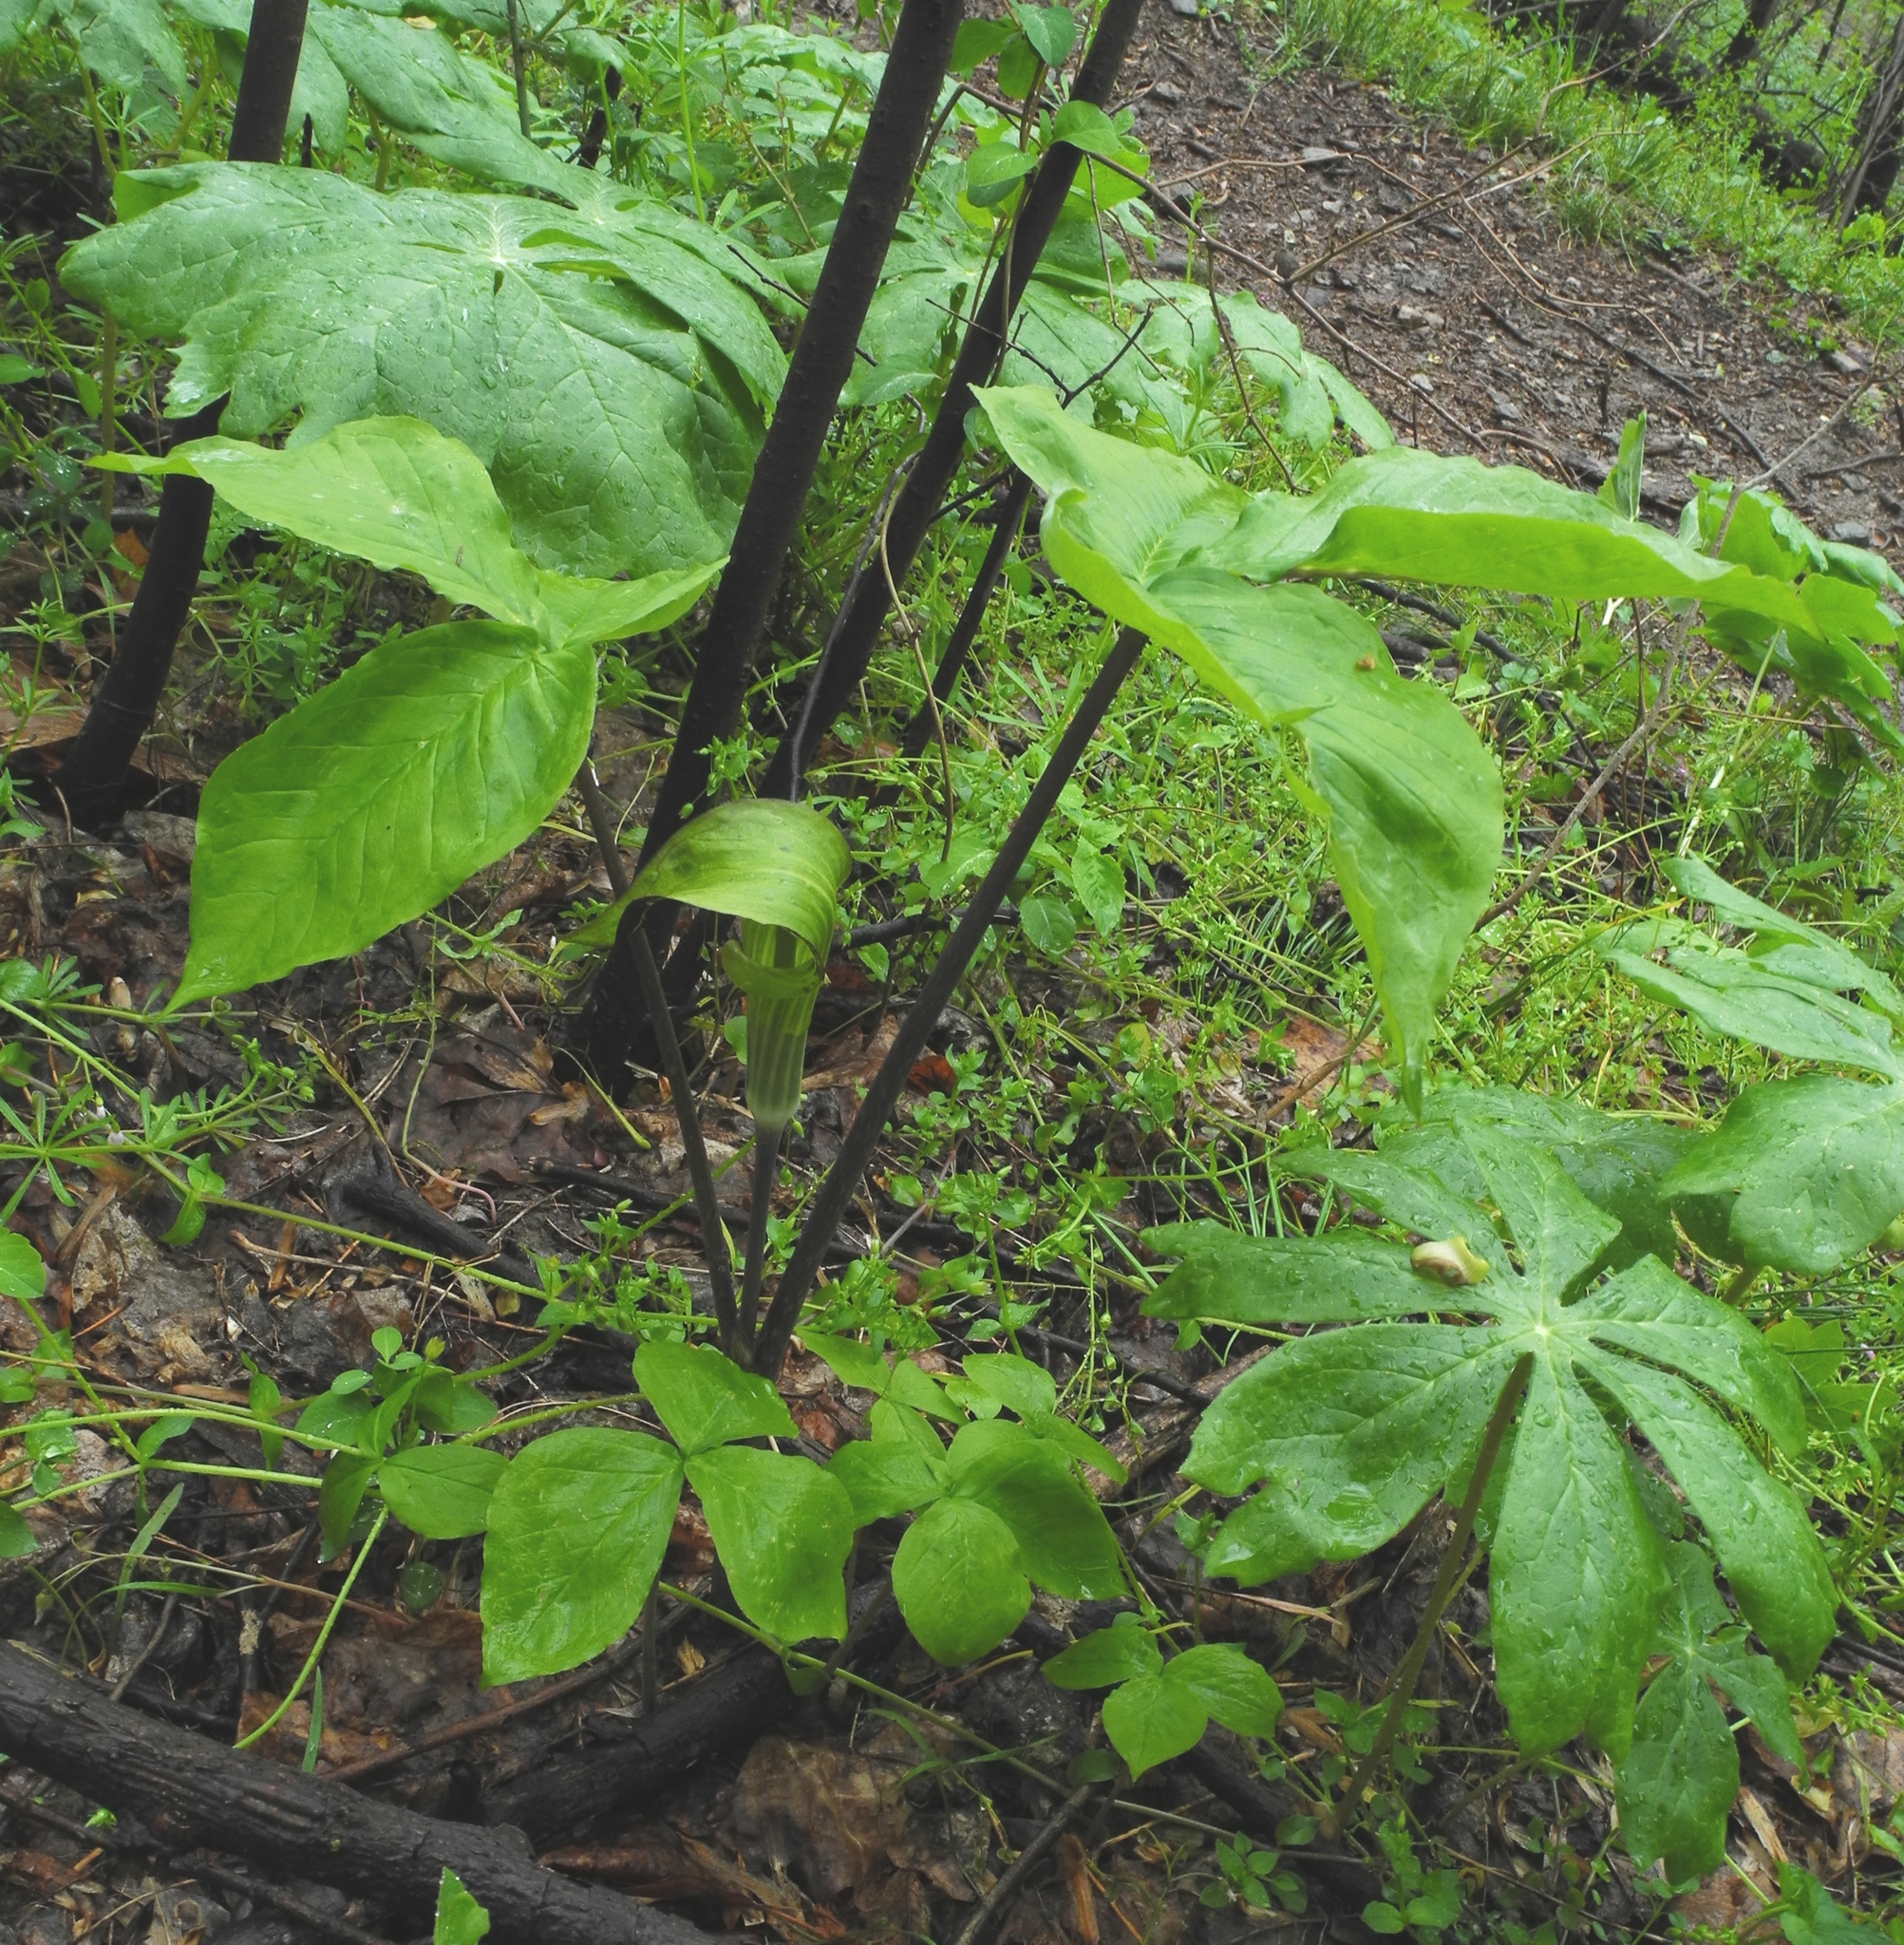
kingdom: Plantae
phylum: Tracheophyta
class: Liliopsida
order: Alismatales
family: Araceae
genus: Arisaema
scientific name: Arisaema triphyllum
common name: Jack-in-the-pulpit
